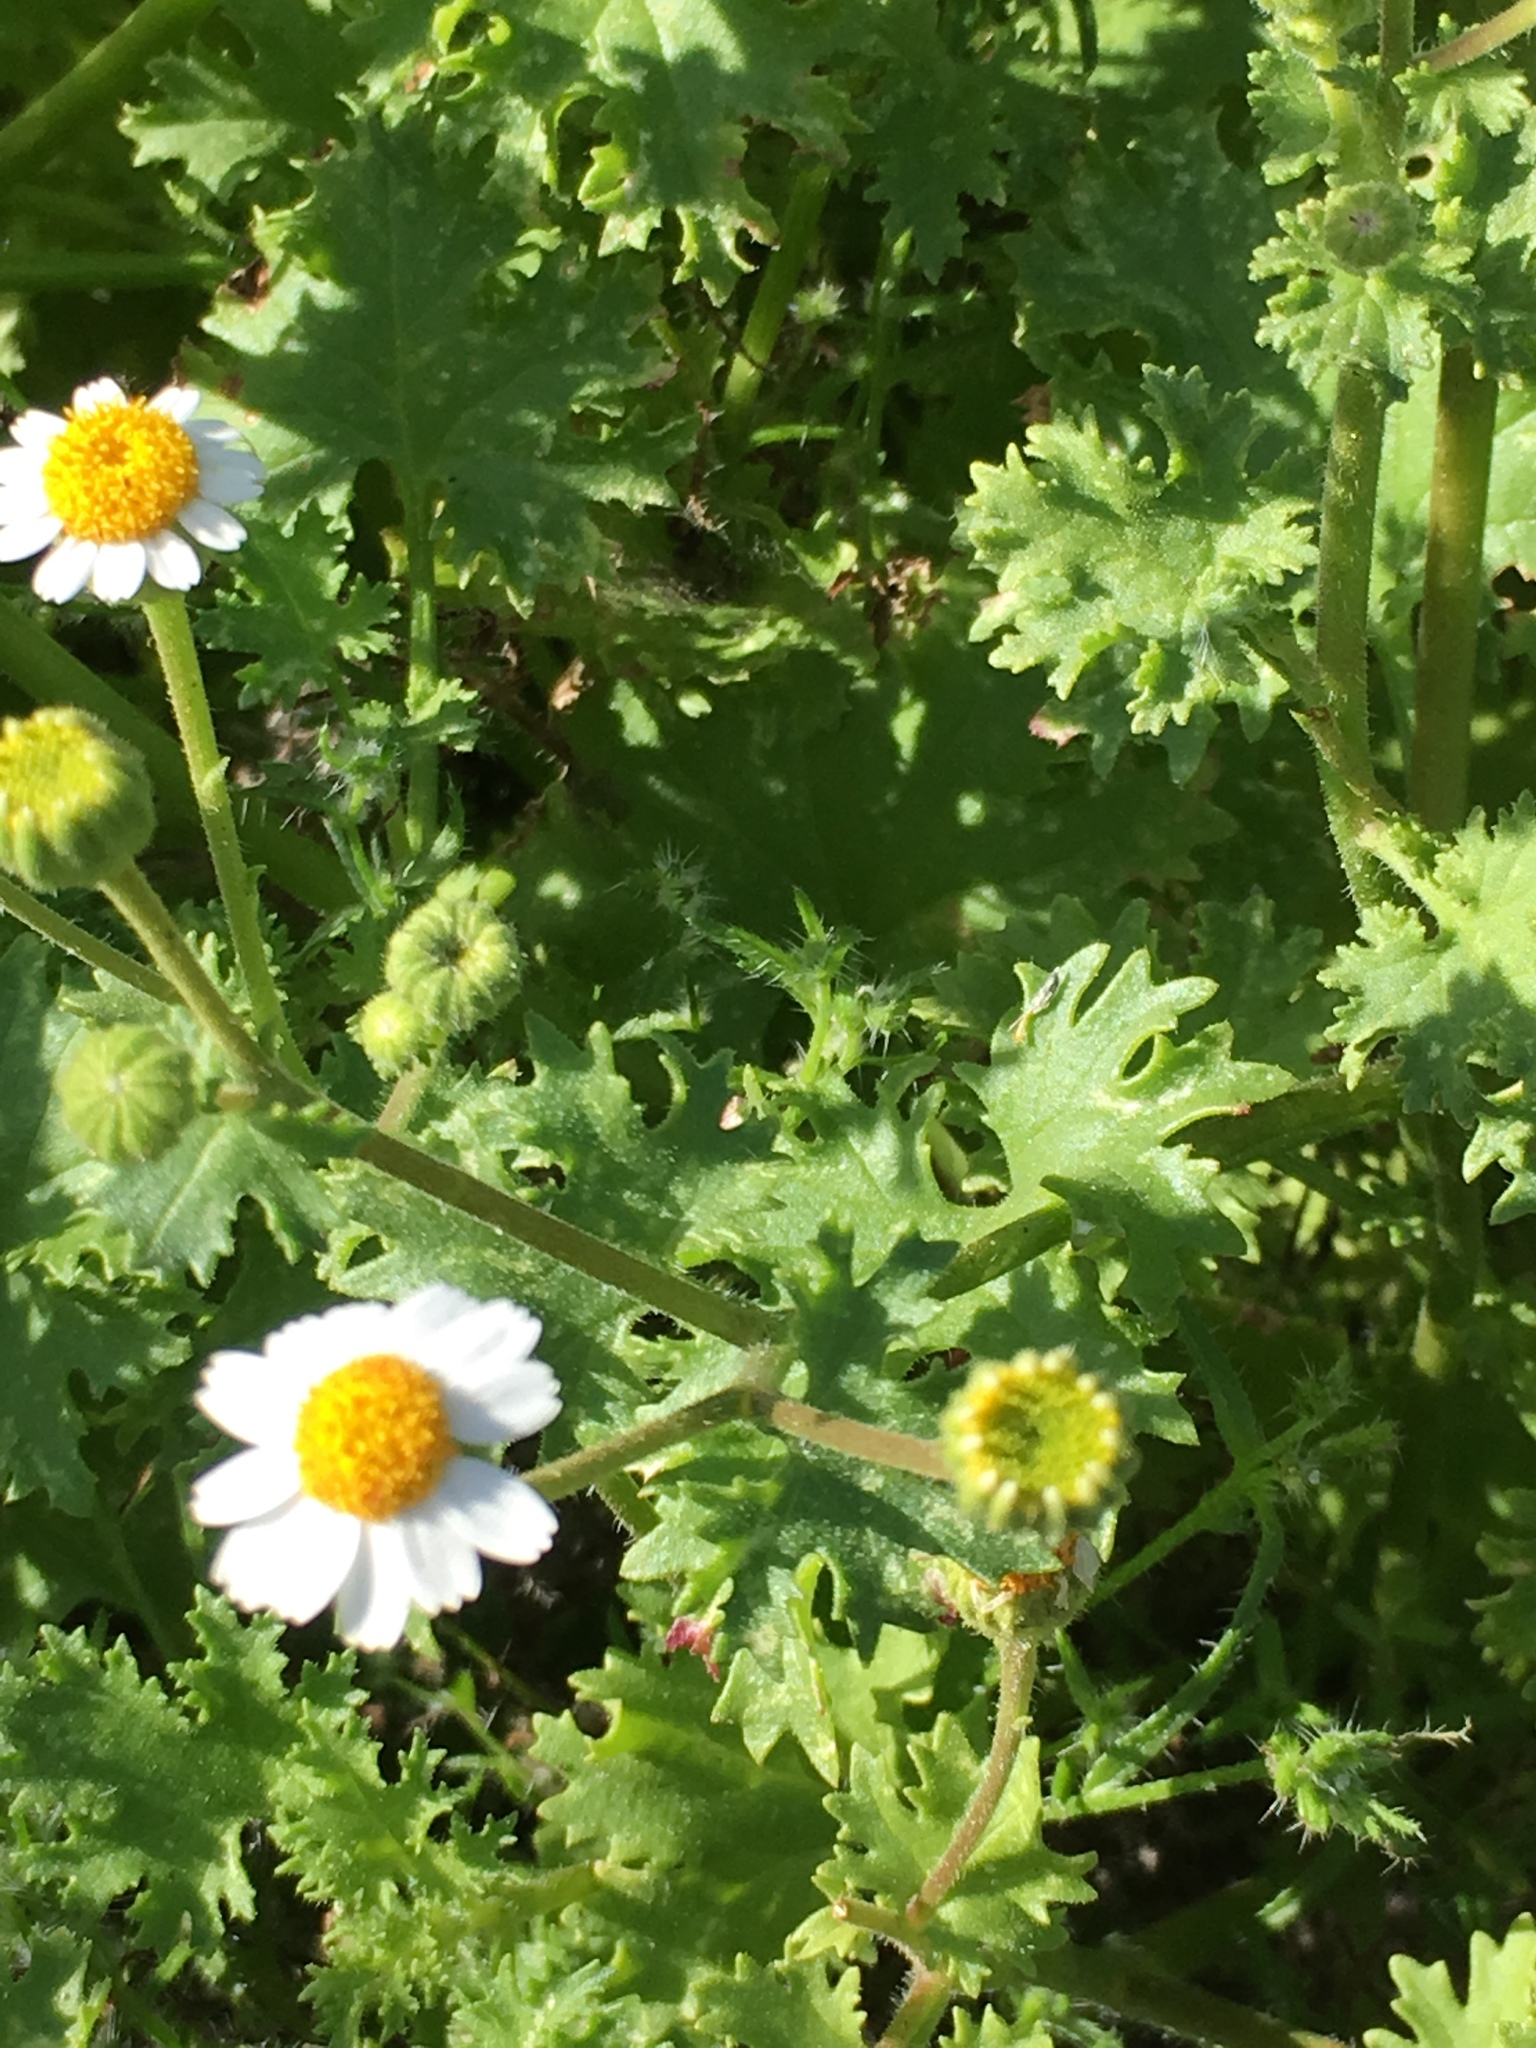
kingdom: Plantae
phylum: Tracheophyta
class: Magnoliopsida
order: Asterales
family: Asteraceae
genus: Laphamia
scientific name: Laphamia emoryi
